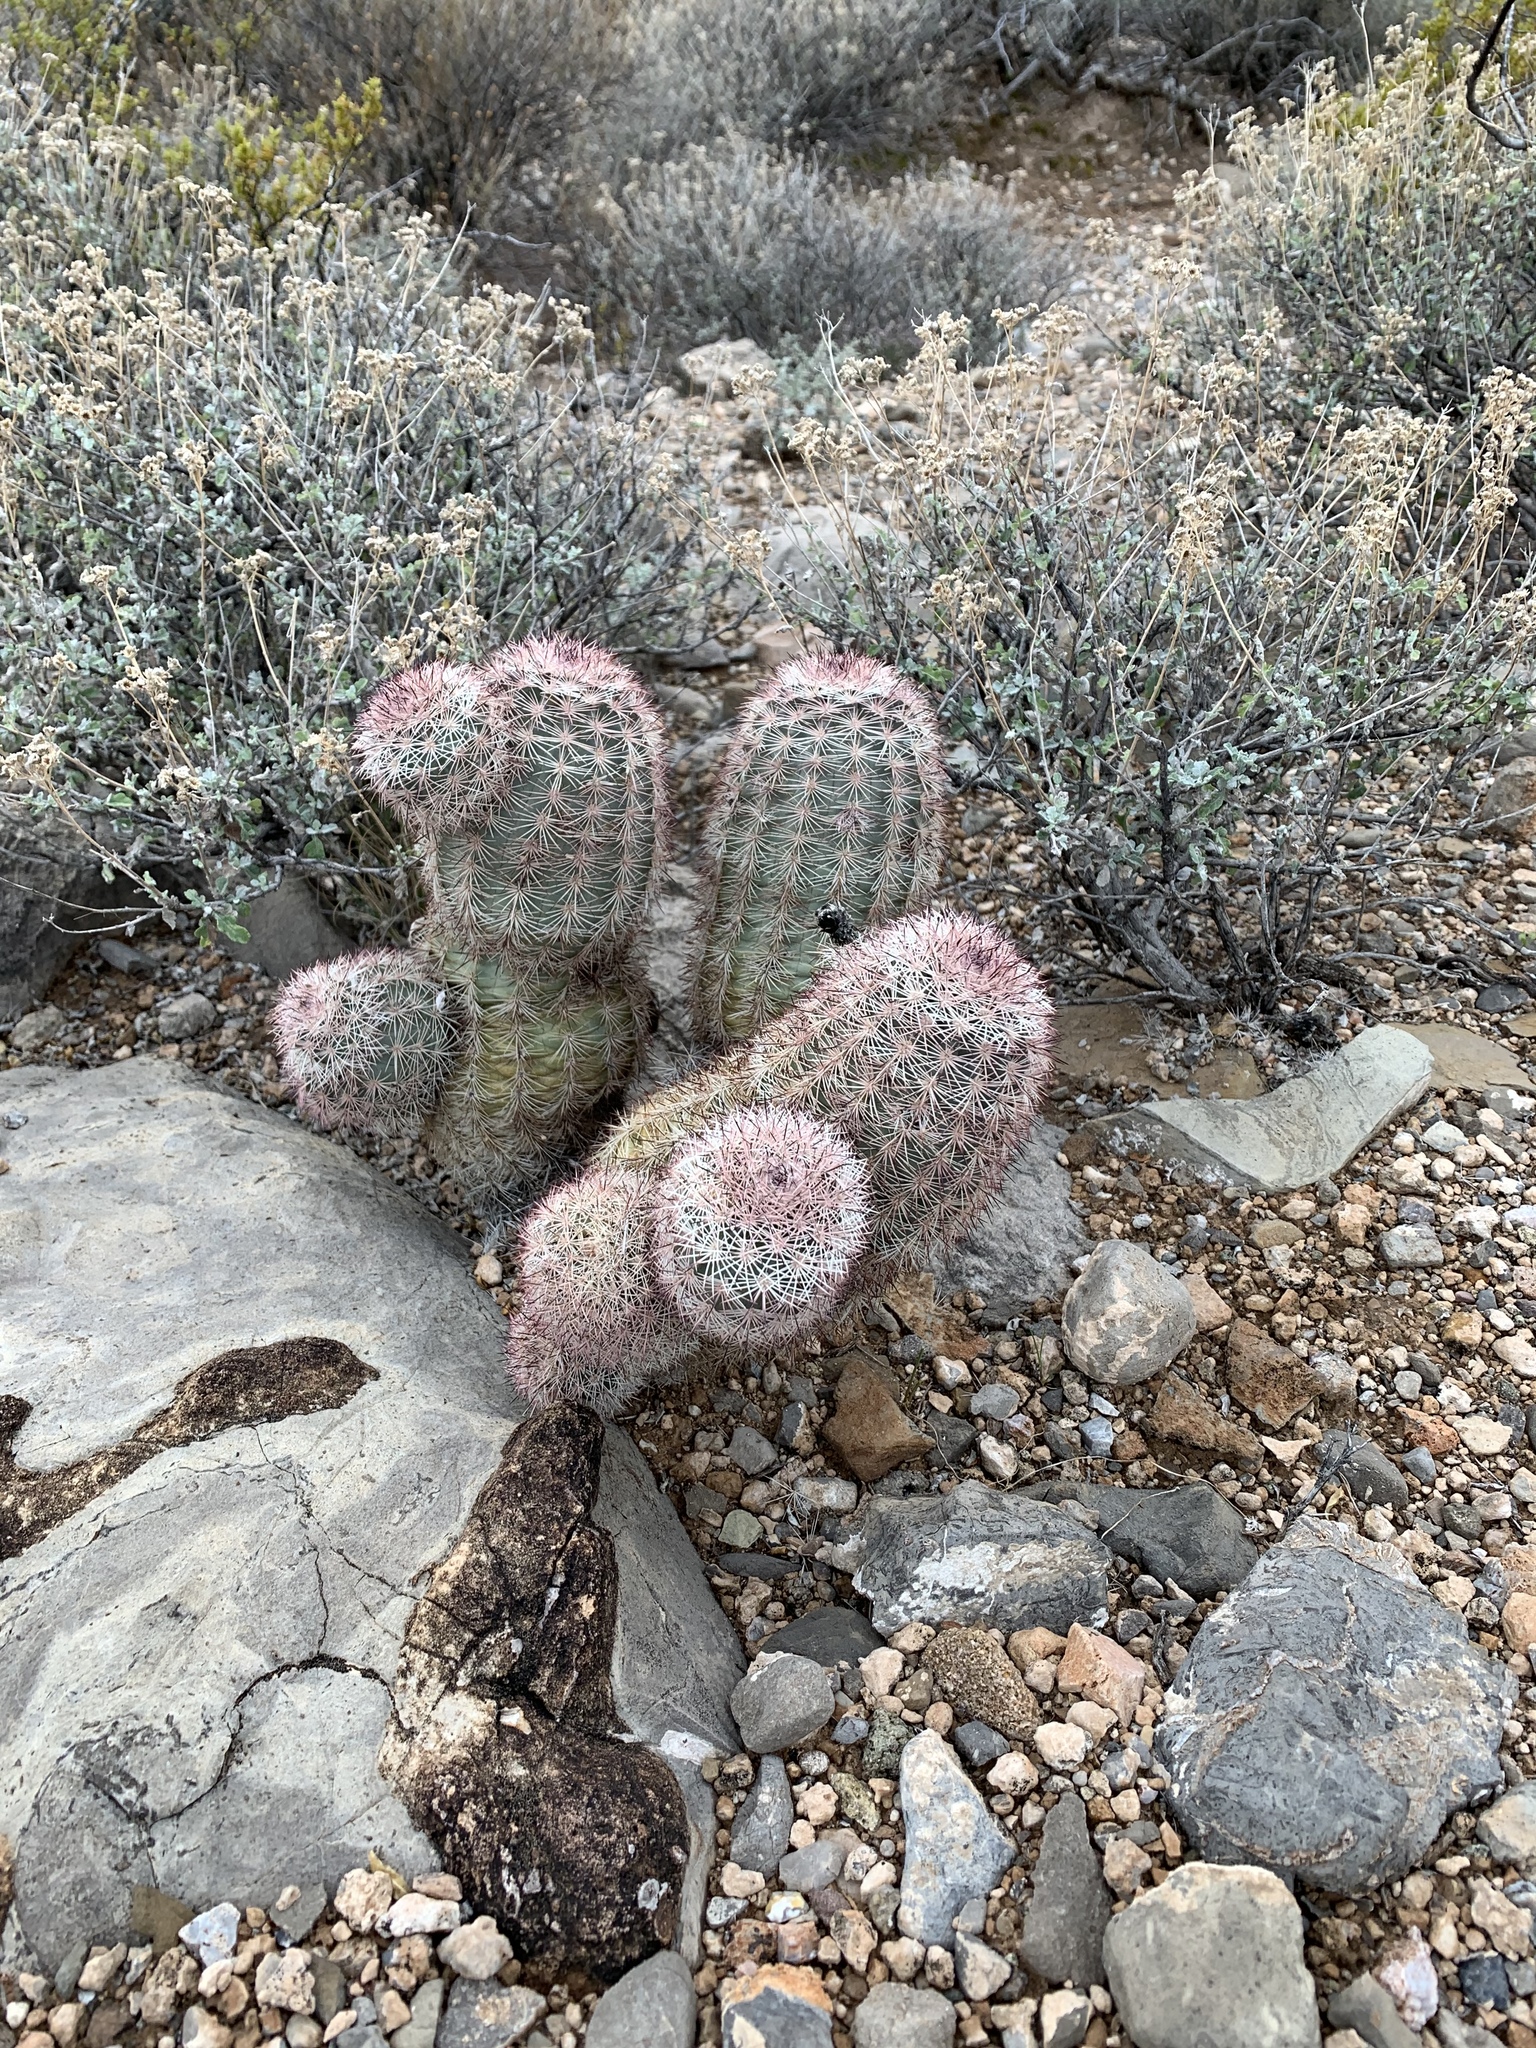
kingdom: Plantae
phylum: Tracheophyta
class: Magnoliopsida
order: Caryophyllales
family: Cactaceae
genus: Echinocereus
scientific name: Echinocereus dasyacanthus
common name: Spiny hedgehog cactus
